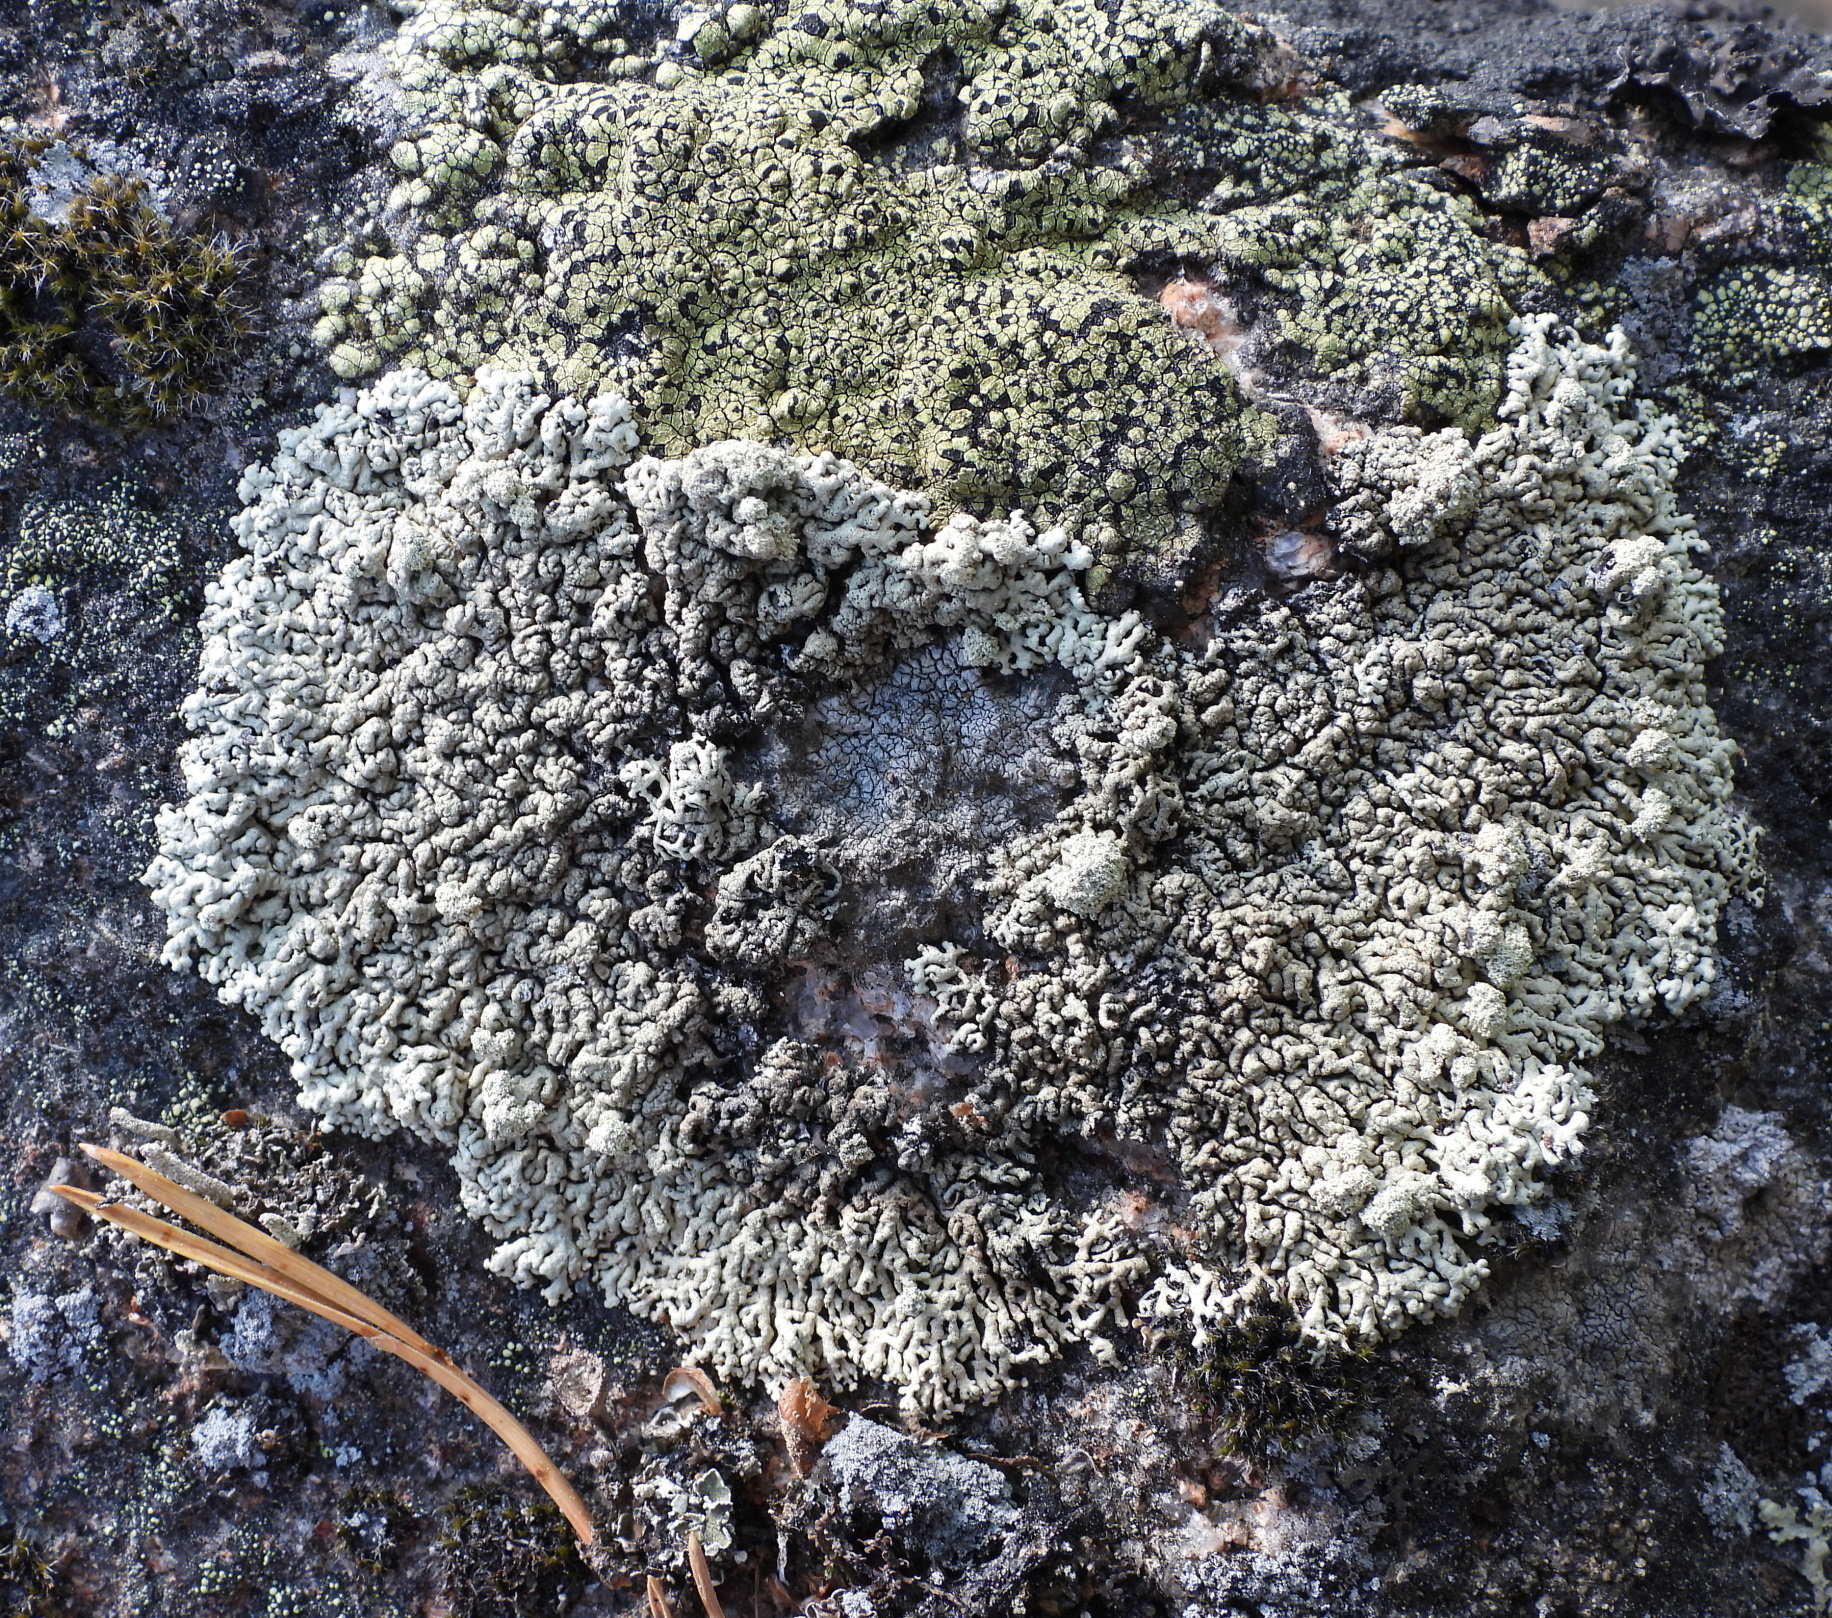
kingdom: Fungi
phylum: Ascomycota
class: Lecanoromycetes
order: Lecanorales
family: Parmeliaceae
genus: Arctoparmelia
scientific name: Arctoparmelia incurva
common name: Bent ring lichen
